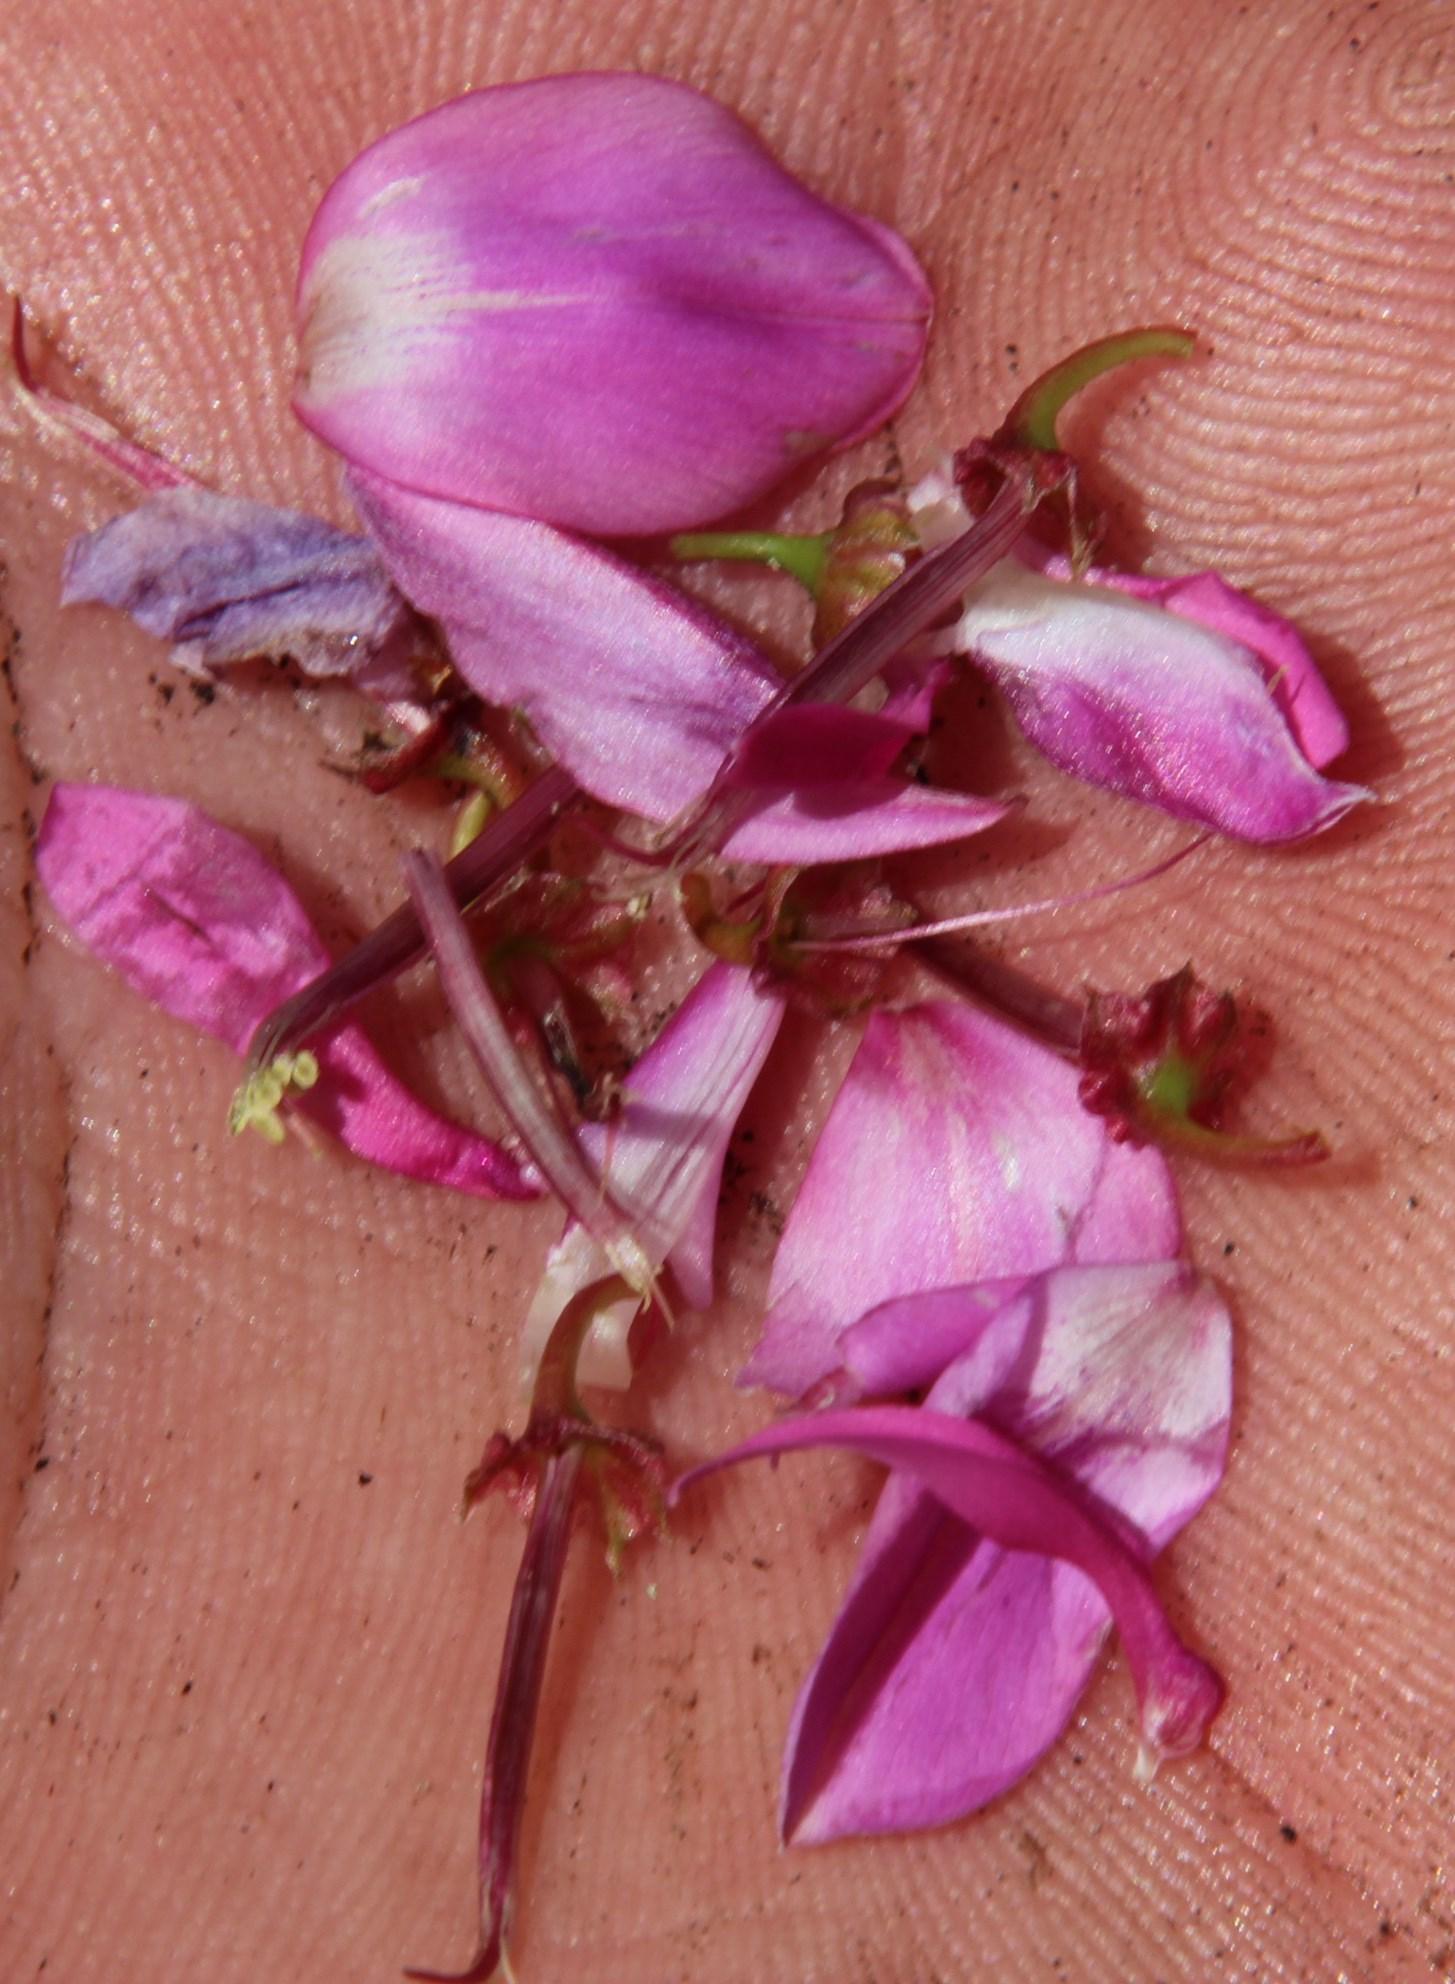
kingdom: Plantae
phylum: Tracheophyta
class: Magnoliopsida
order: Fabales
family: Fabaceae
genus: Indigofera
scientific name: Indigofera langebergensis
